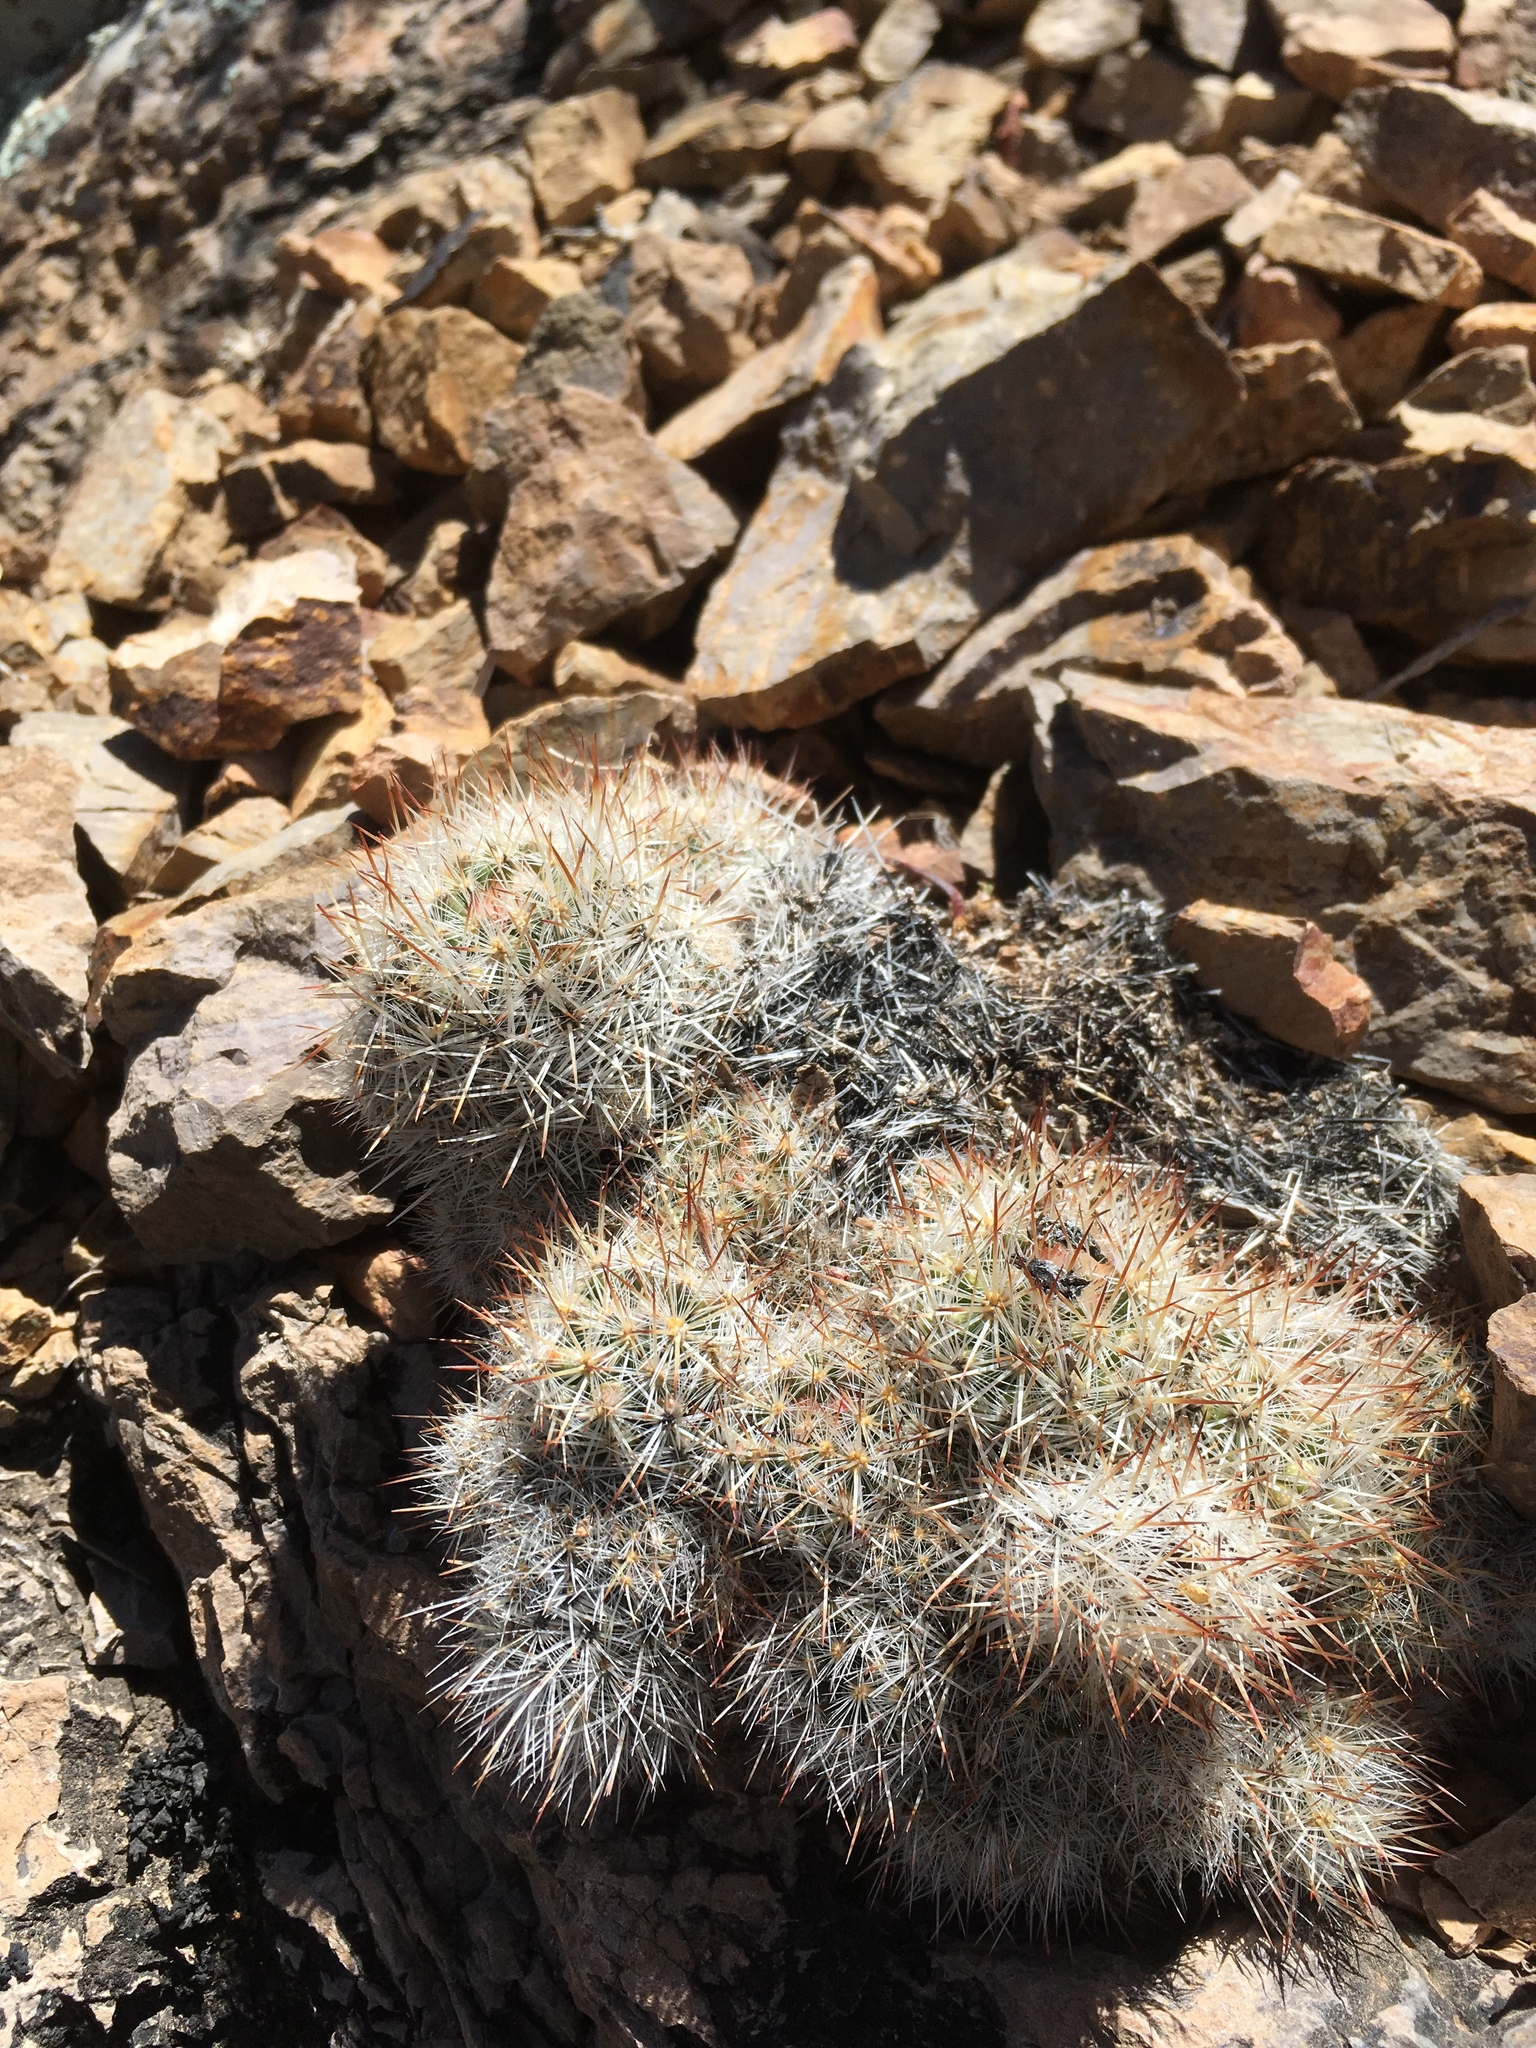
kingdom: Plantae
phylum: Tracheophyta
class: Magnoliopsida
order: Caryophyllales
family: Cactaceae
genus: Pelecyphora
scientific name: Pelecyphora sneedii
